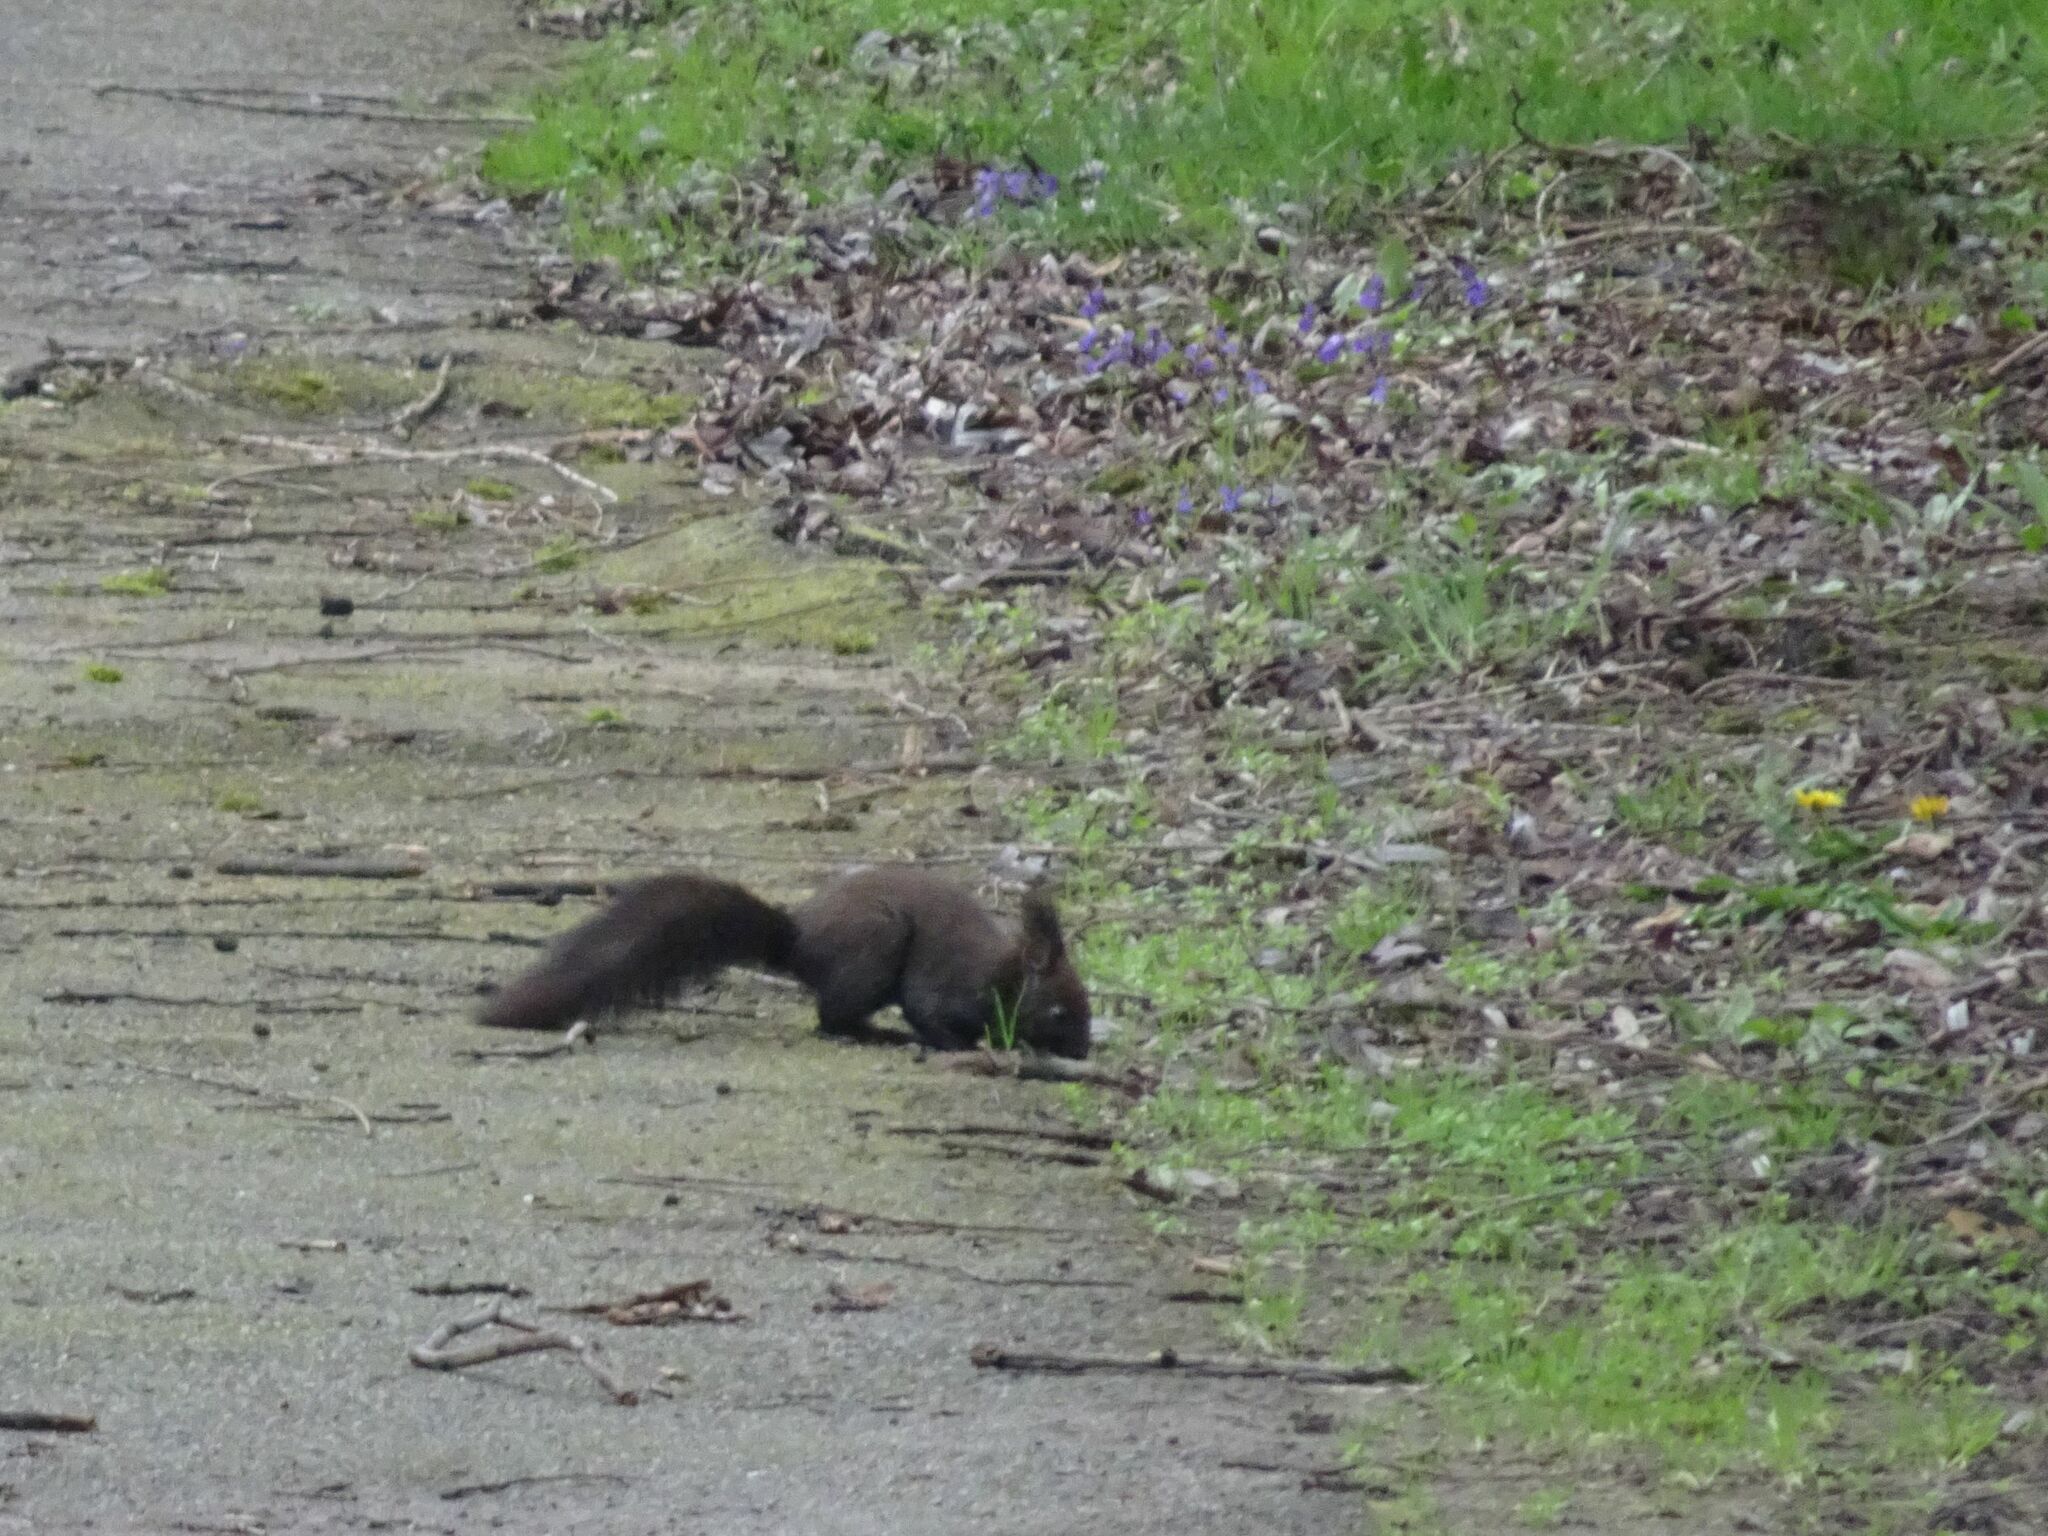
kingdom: Animalia
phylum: Chordata
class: Mammalia
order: Rodentia
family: Sciuridae
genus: Sciurus
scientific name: Sciurus vulgaris
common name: Eurasian red squirrel
